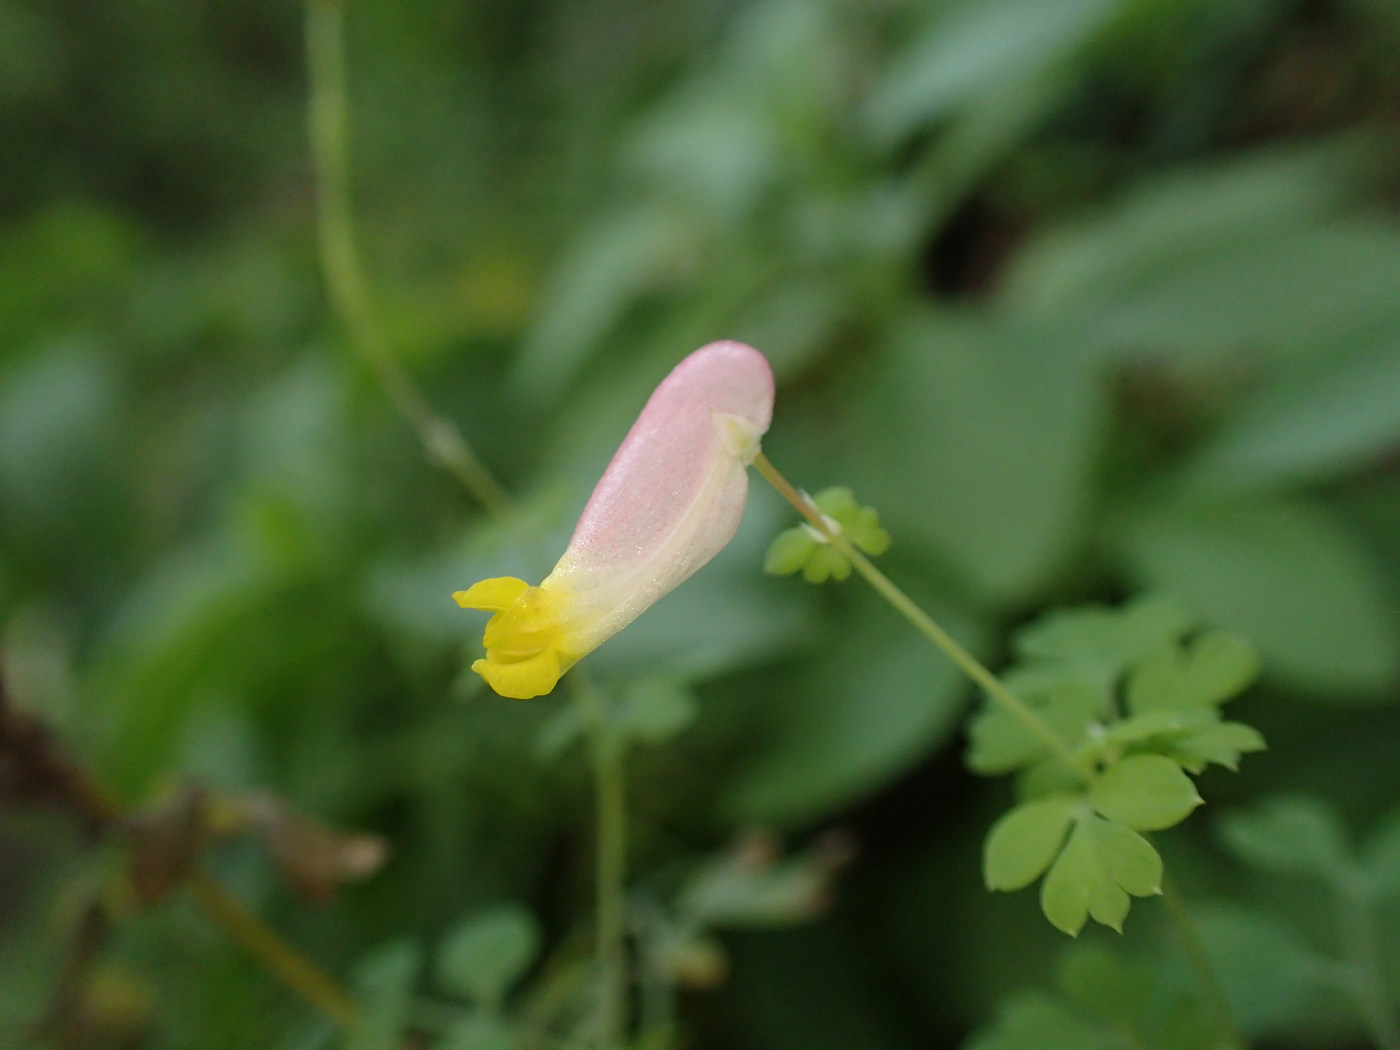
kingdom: Plantae
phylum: Tracheophyta
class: Magnoliopsida
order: Ranunculales
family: Papaveraceae
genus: Capnoides
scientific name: Capnoides sempervirens
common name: Rock harlequin
